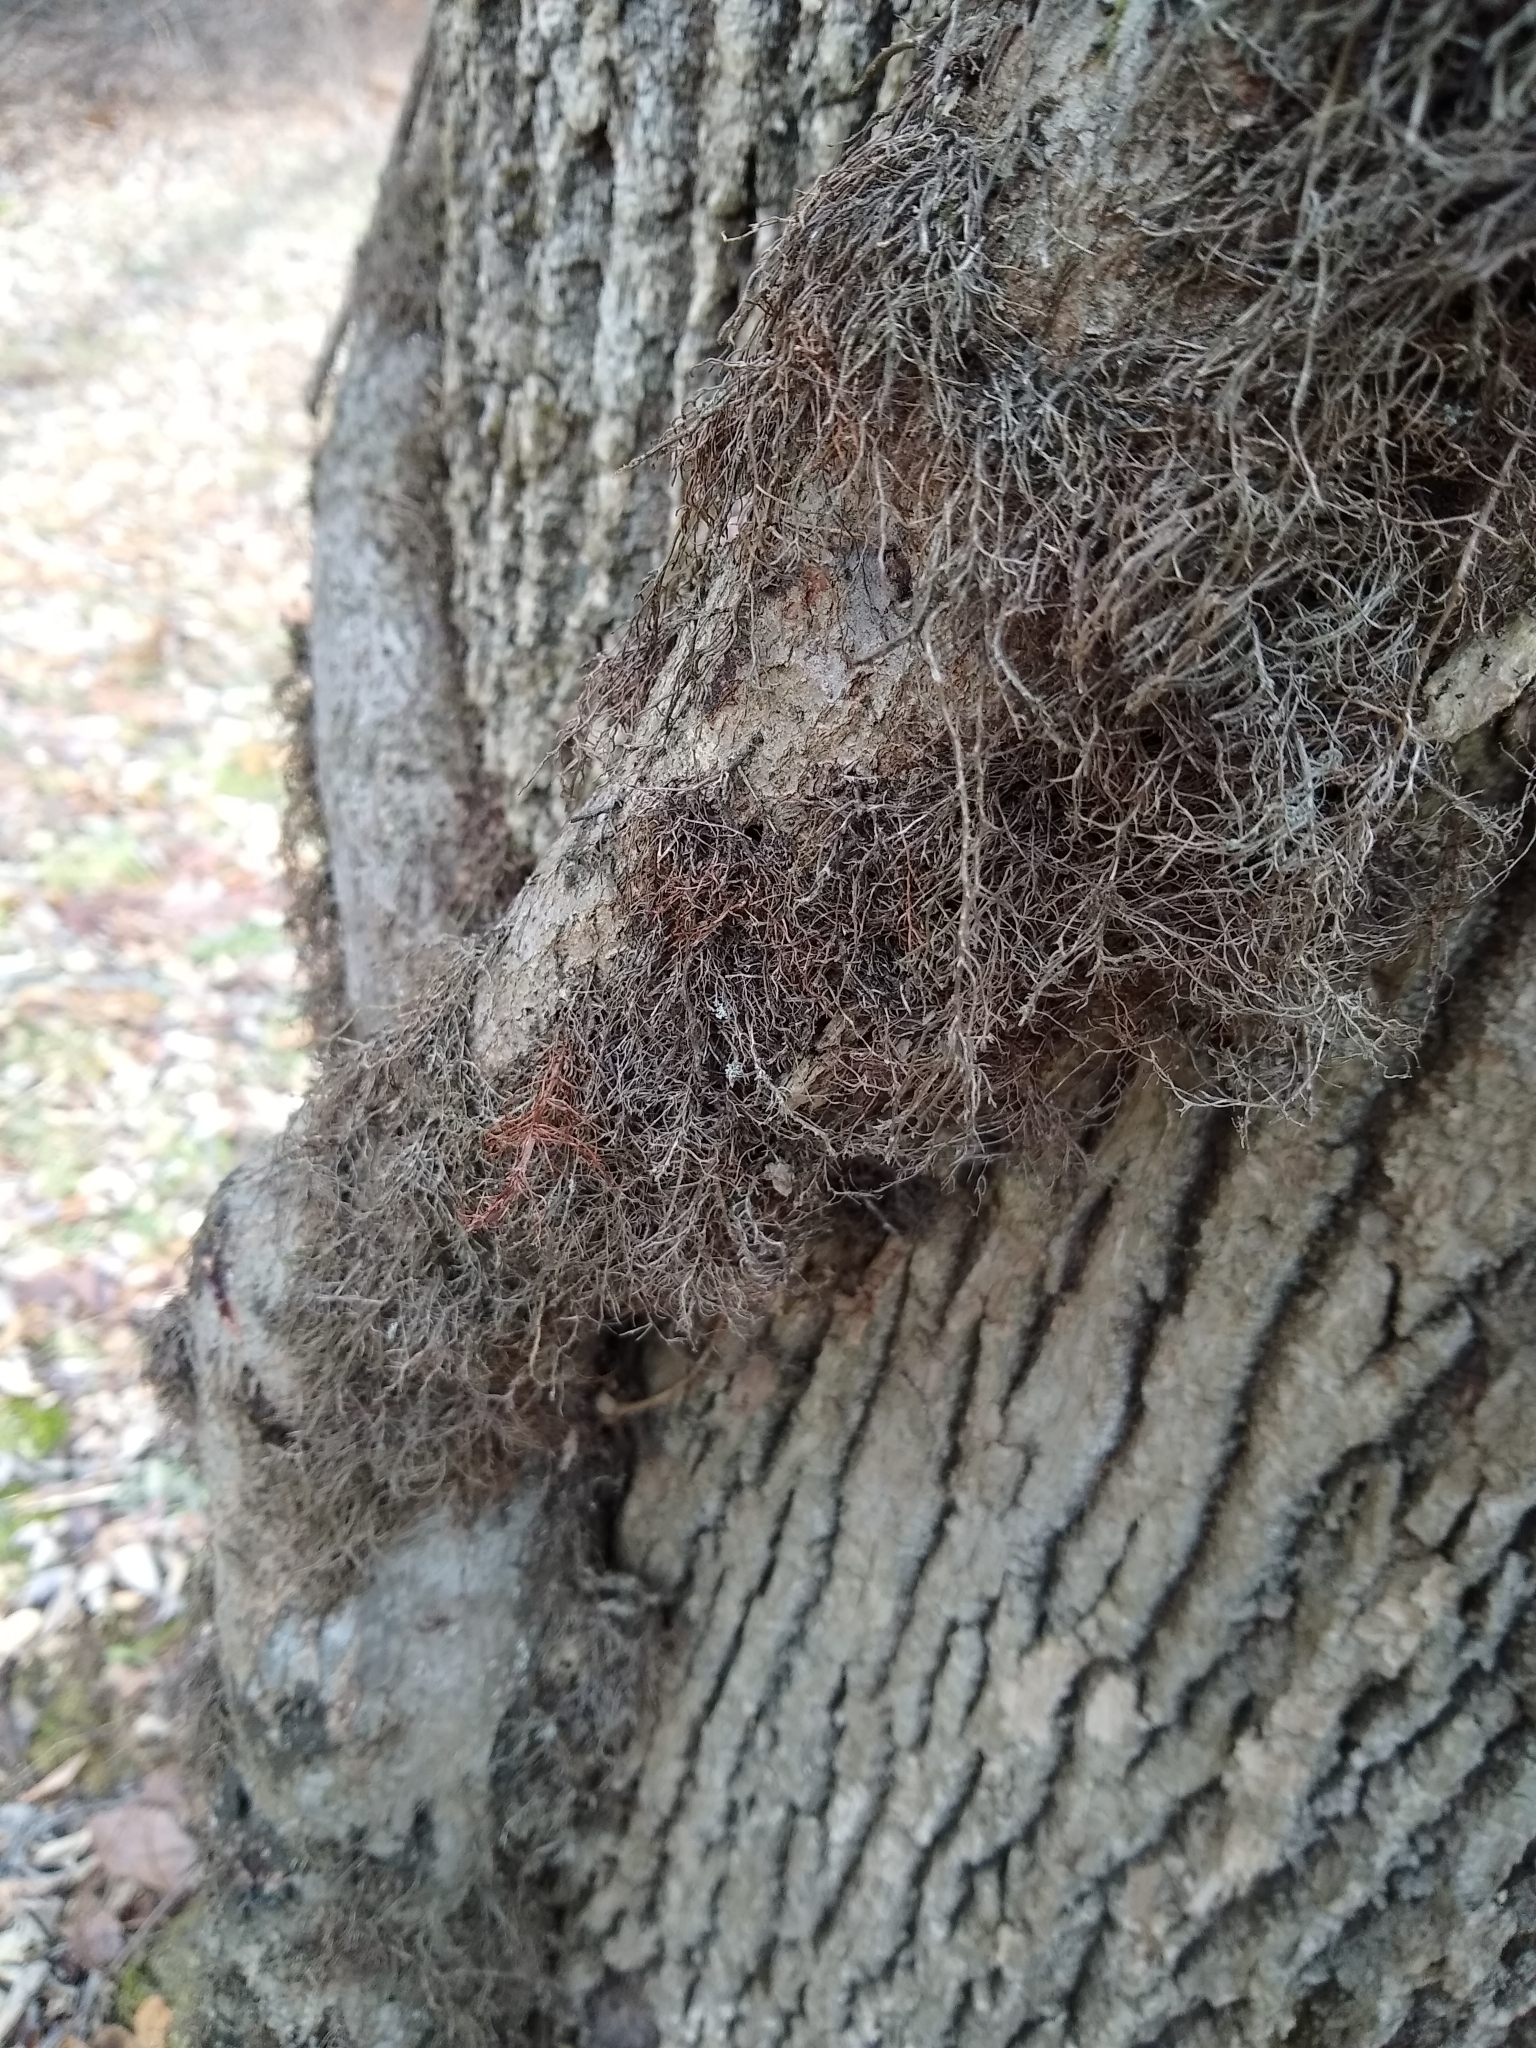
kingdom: Plantae
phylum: Tracheophyta
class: Magnoliopsida
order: Sapindales
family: Anacardiaceae
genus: Toxicodendron
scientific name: Toxicodendron radicans
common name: Poison ivy
